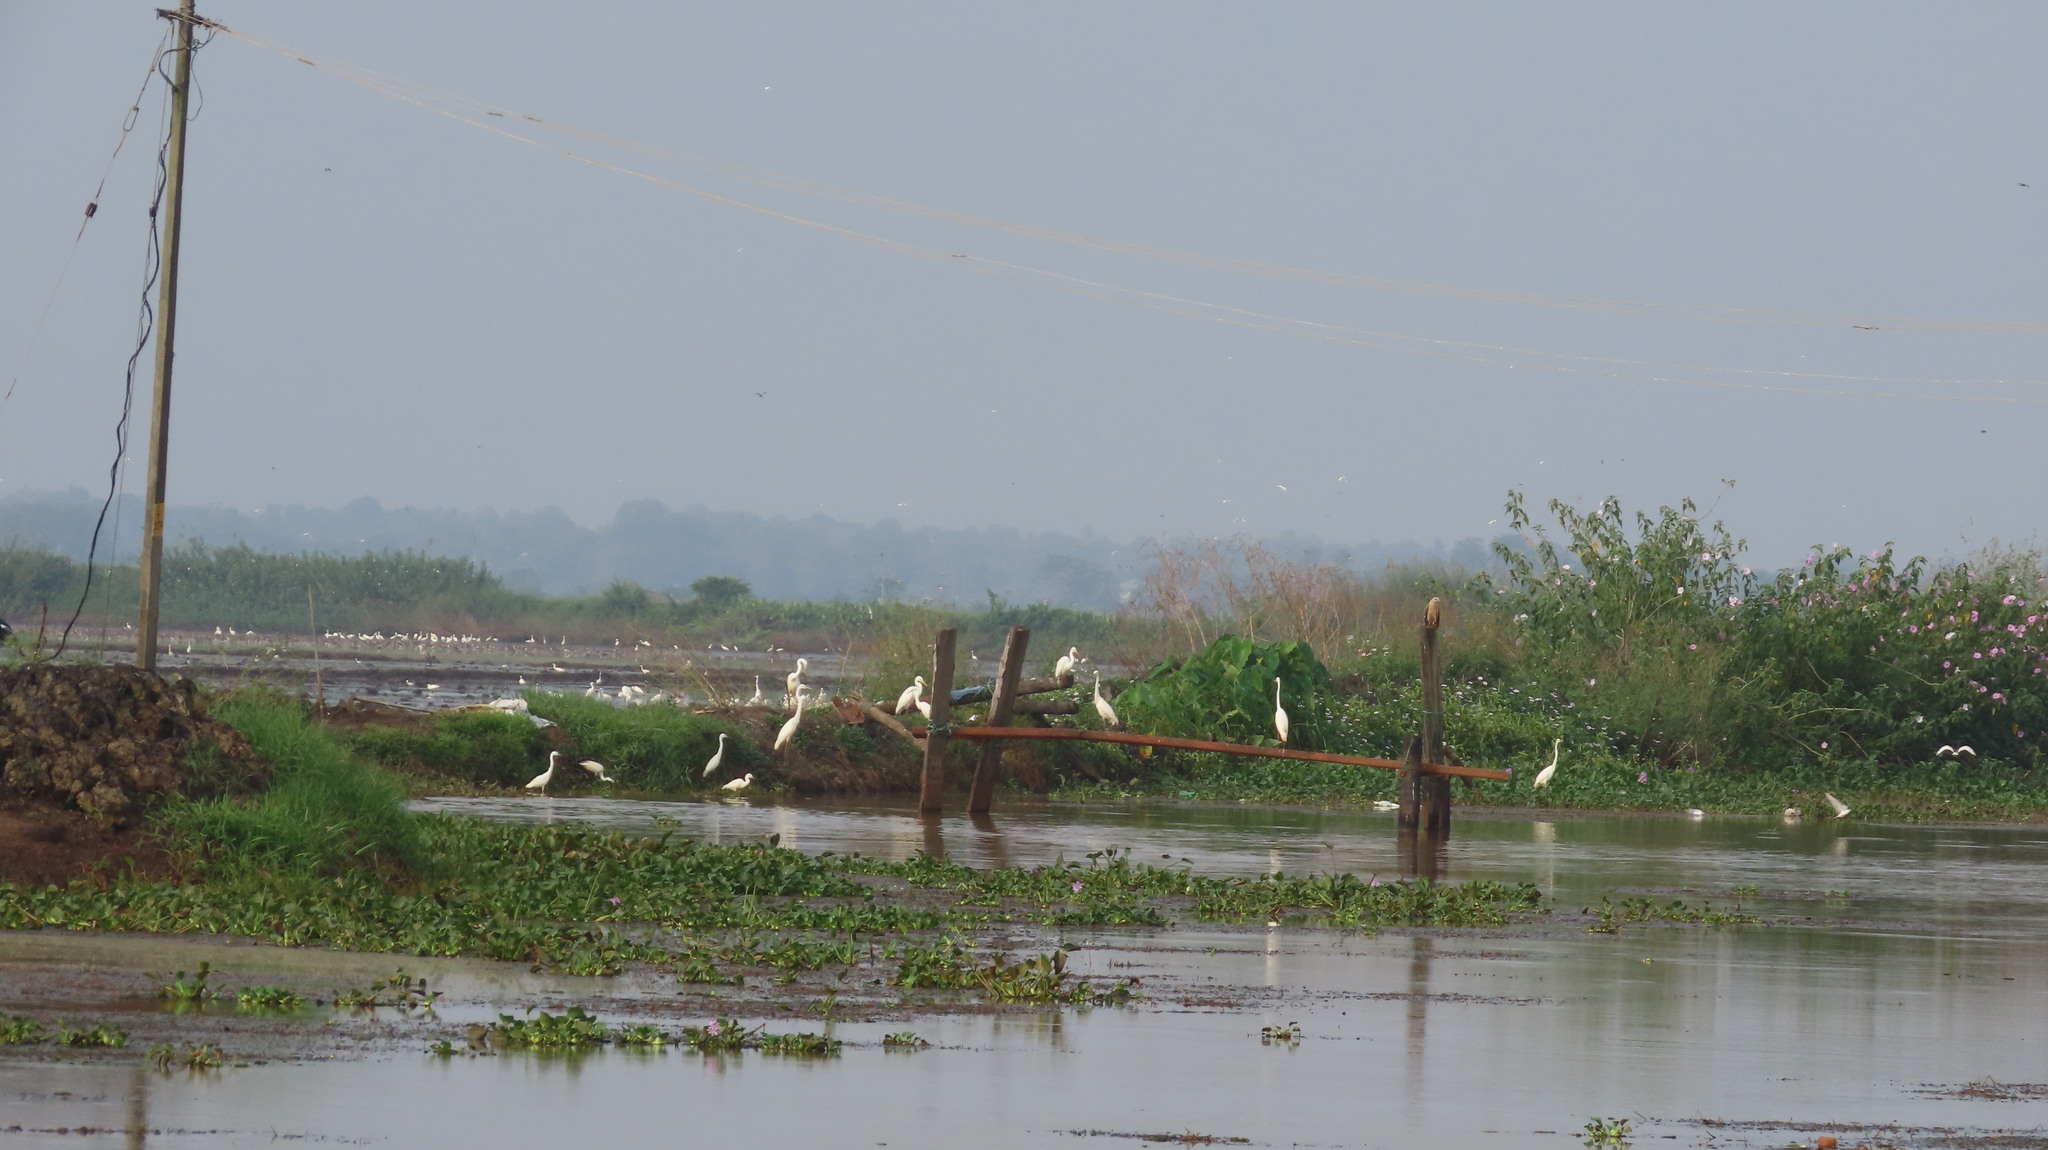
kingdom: Animalia
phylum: Chordata
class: Aves
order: Accipitriformes
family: Accipitridae
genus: Haliastur
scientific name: Haliastur indus
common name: Brahminy kite
